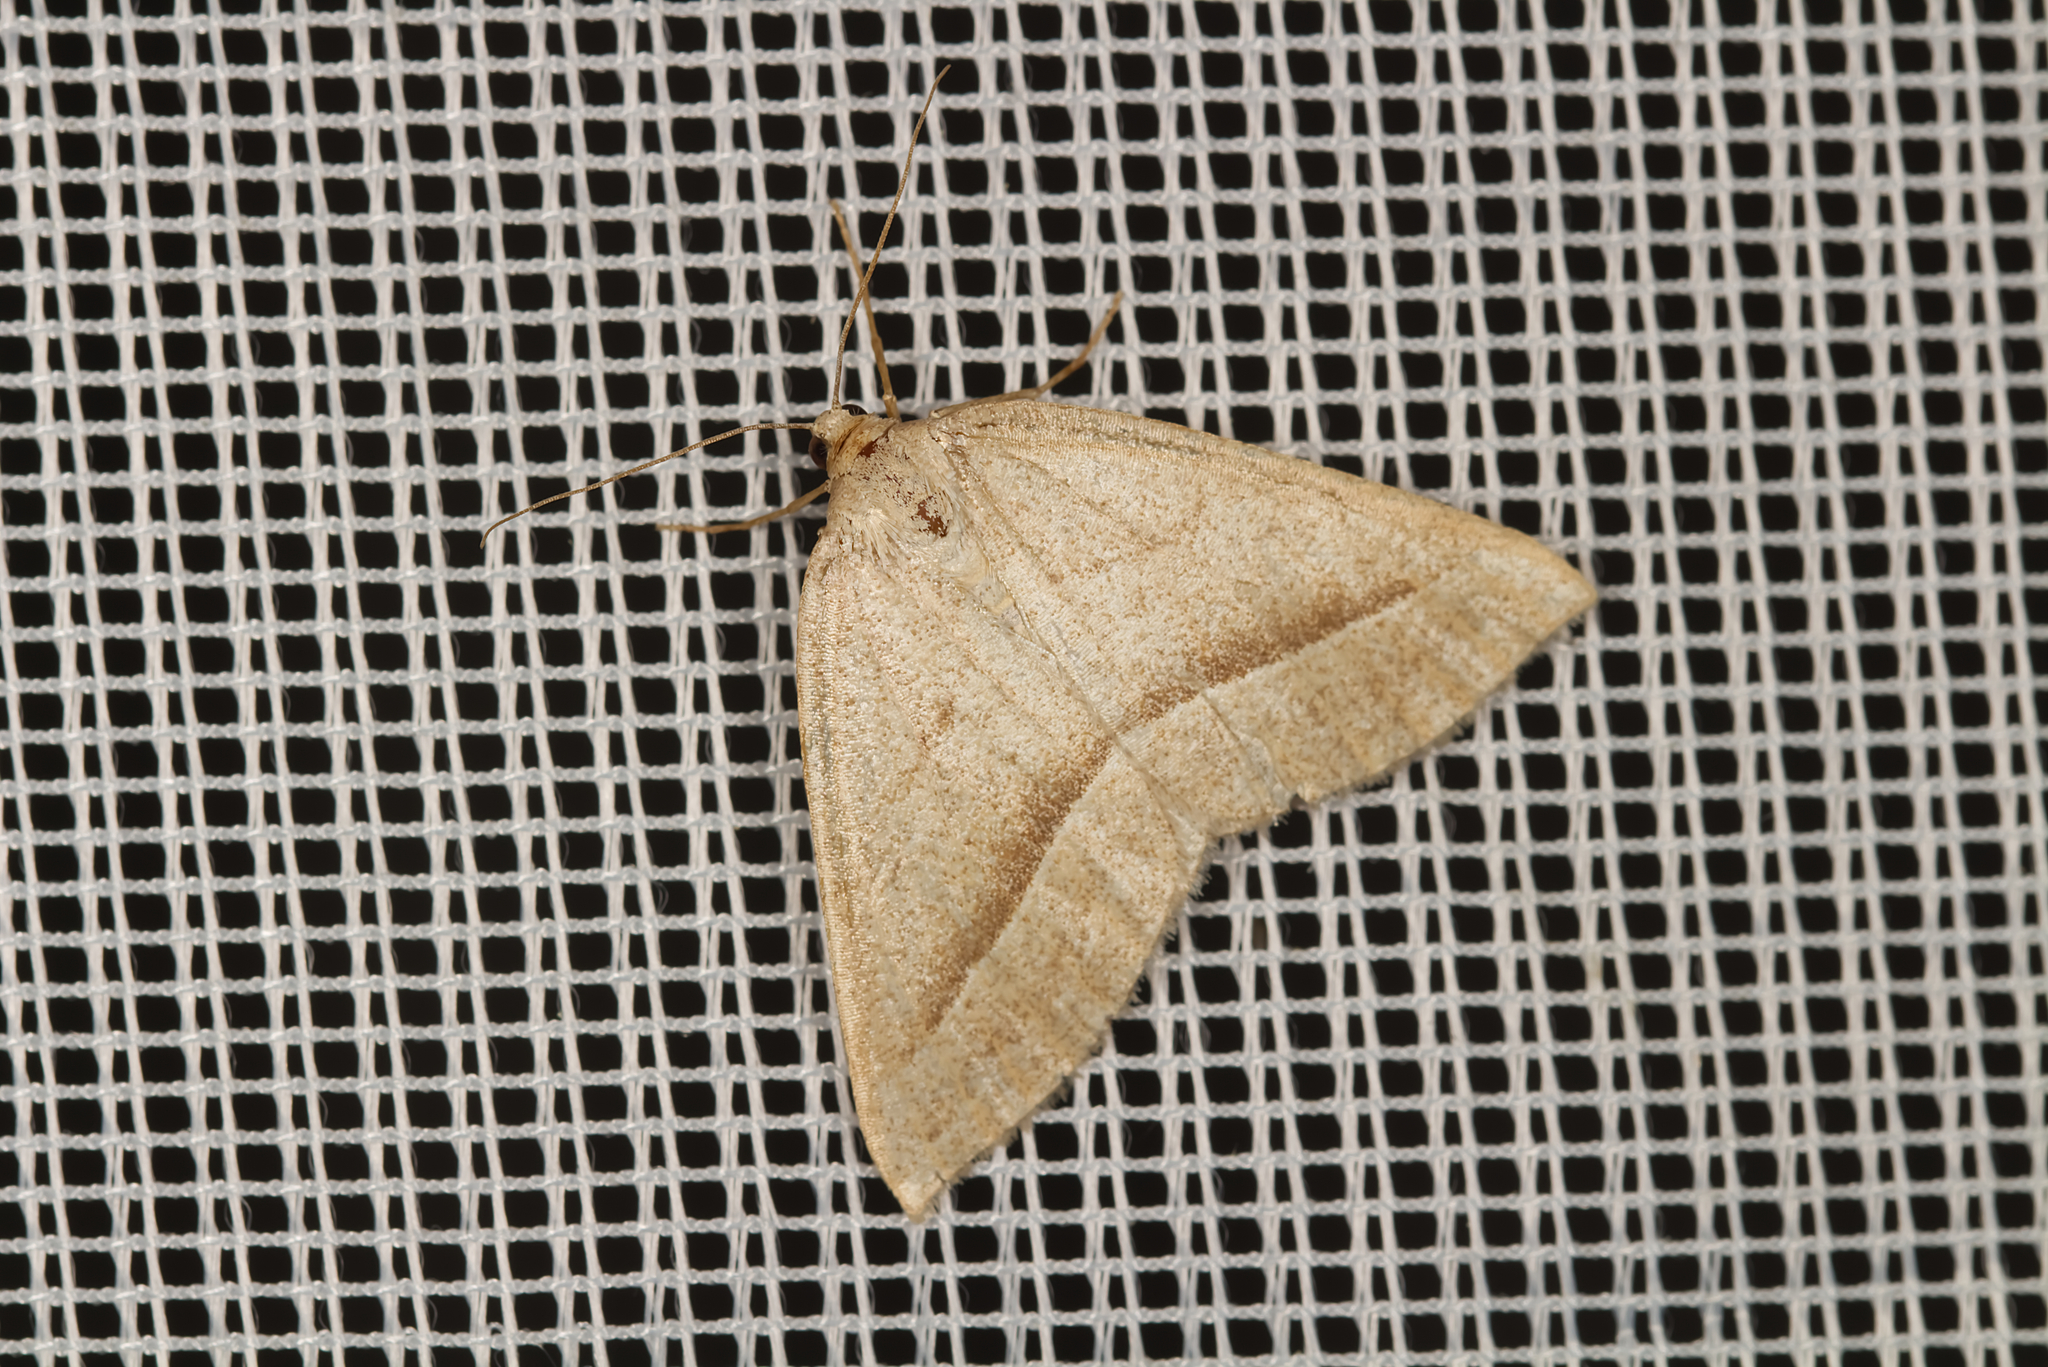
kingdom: Animalia
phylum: Arthropoda
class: Insecta
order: Lepidoptera
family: Pterophoridae
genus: Pterophorus
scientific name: Pterophorus Petrophora chlorosata
